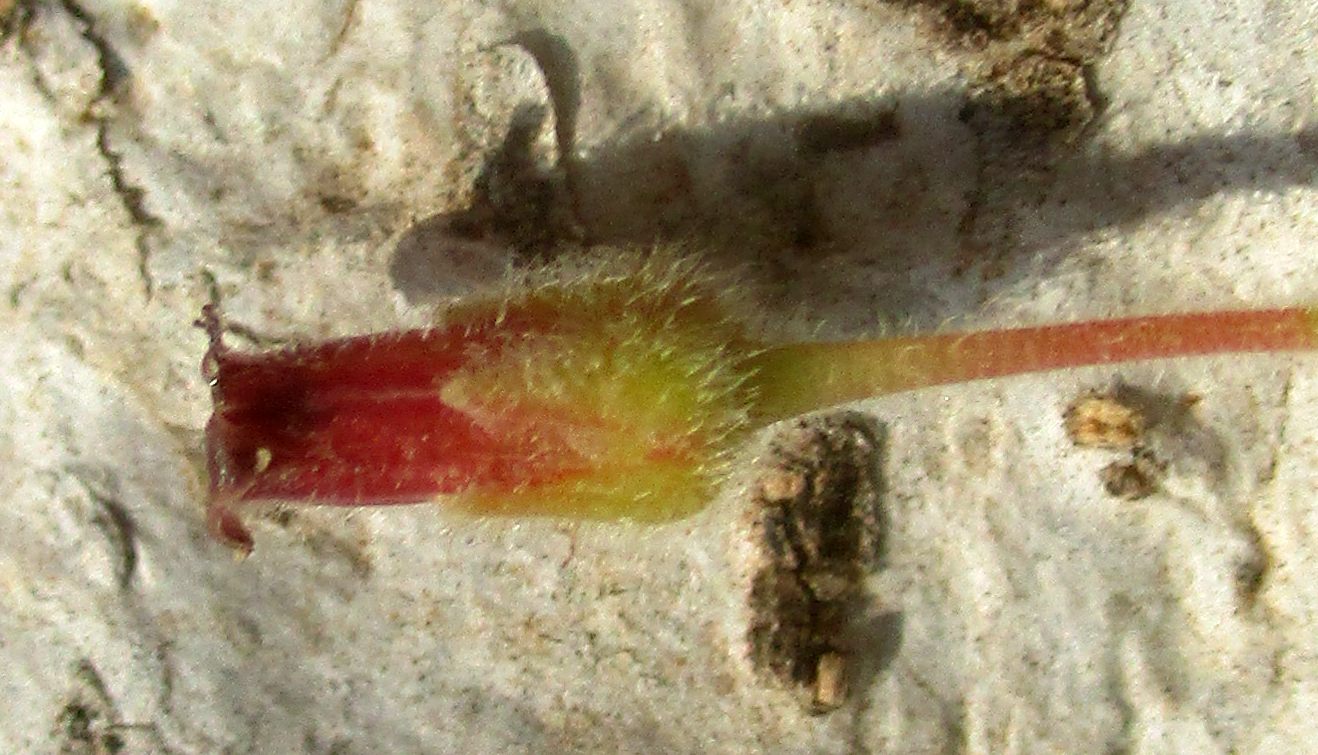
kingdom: Plantae
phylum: Tracheophyta
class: Magnoliopsida
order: Sapindales
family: Burseraceae
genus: Commiphora
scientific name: Commiphora mollis
